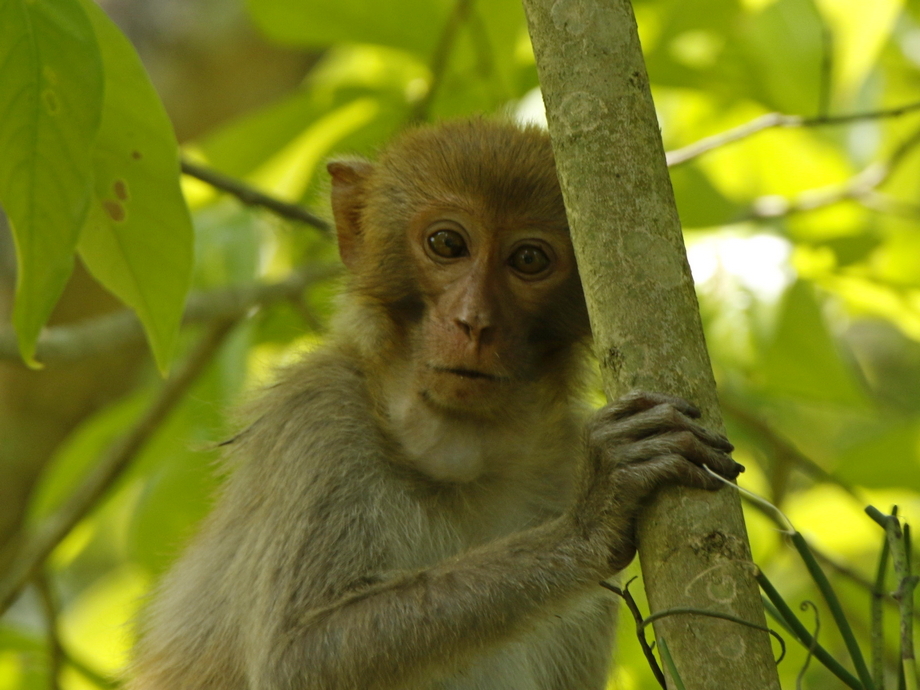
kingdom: Animalia
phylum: Chordata
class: Mammalia
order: Primates
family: Cercopithecidae
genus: Macaca
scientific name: Macaca mulatta
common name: Rhesus monkey
